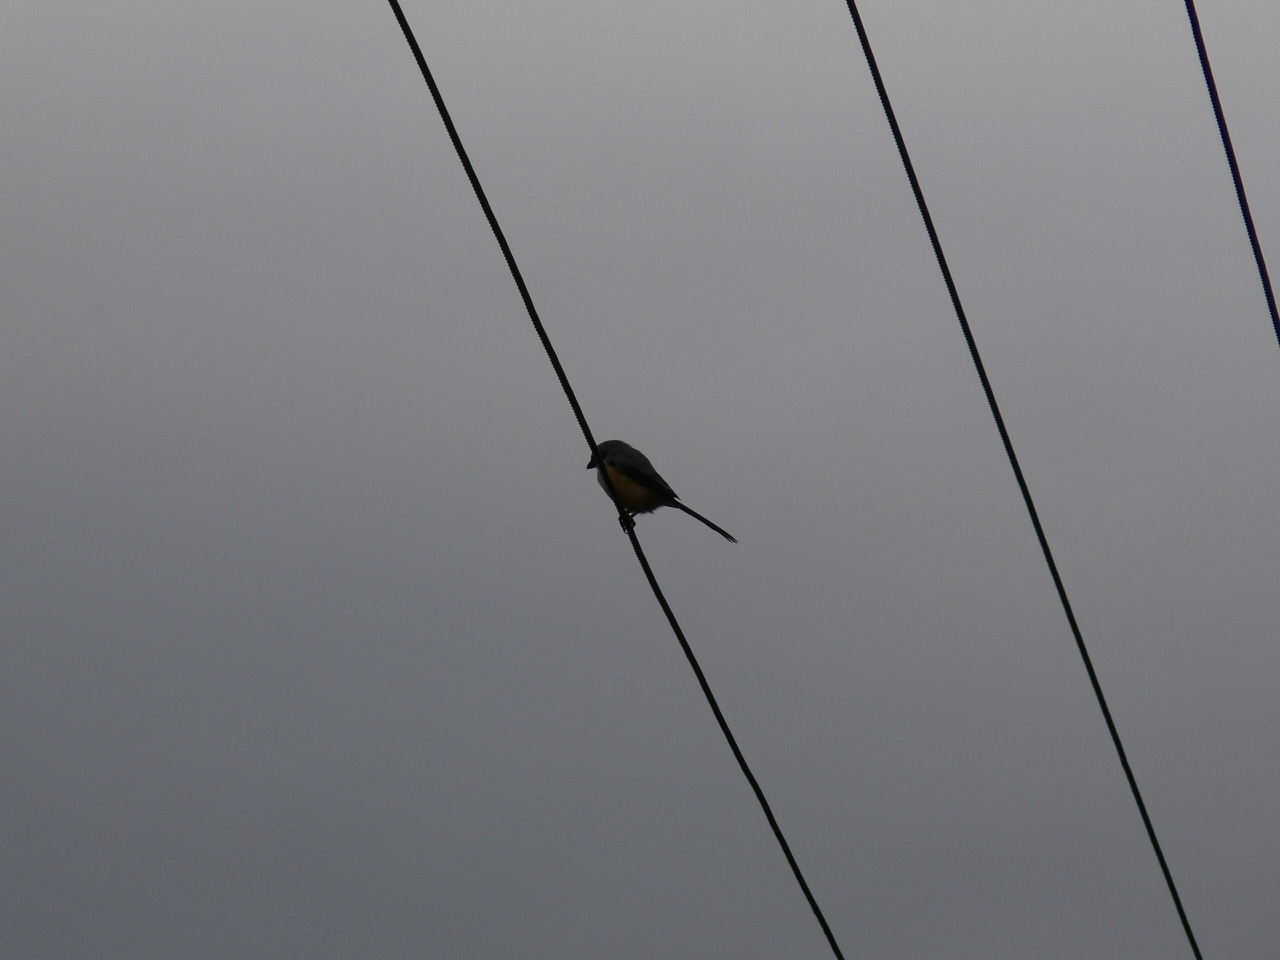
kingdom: Animalia
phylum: Chordata
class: Aves
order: Passeriformes
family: Laniidae
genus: Lanius
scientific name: Lanius schach
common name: Long-tailed shrike
